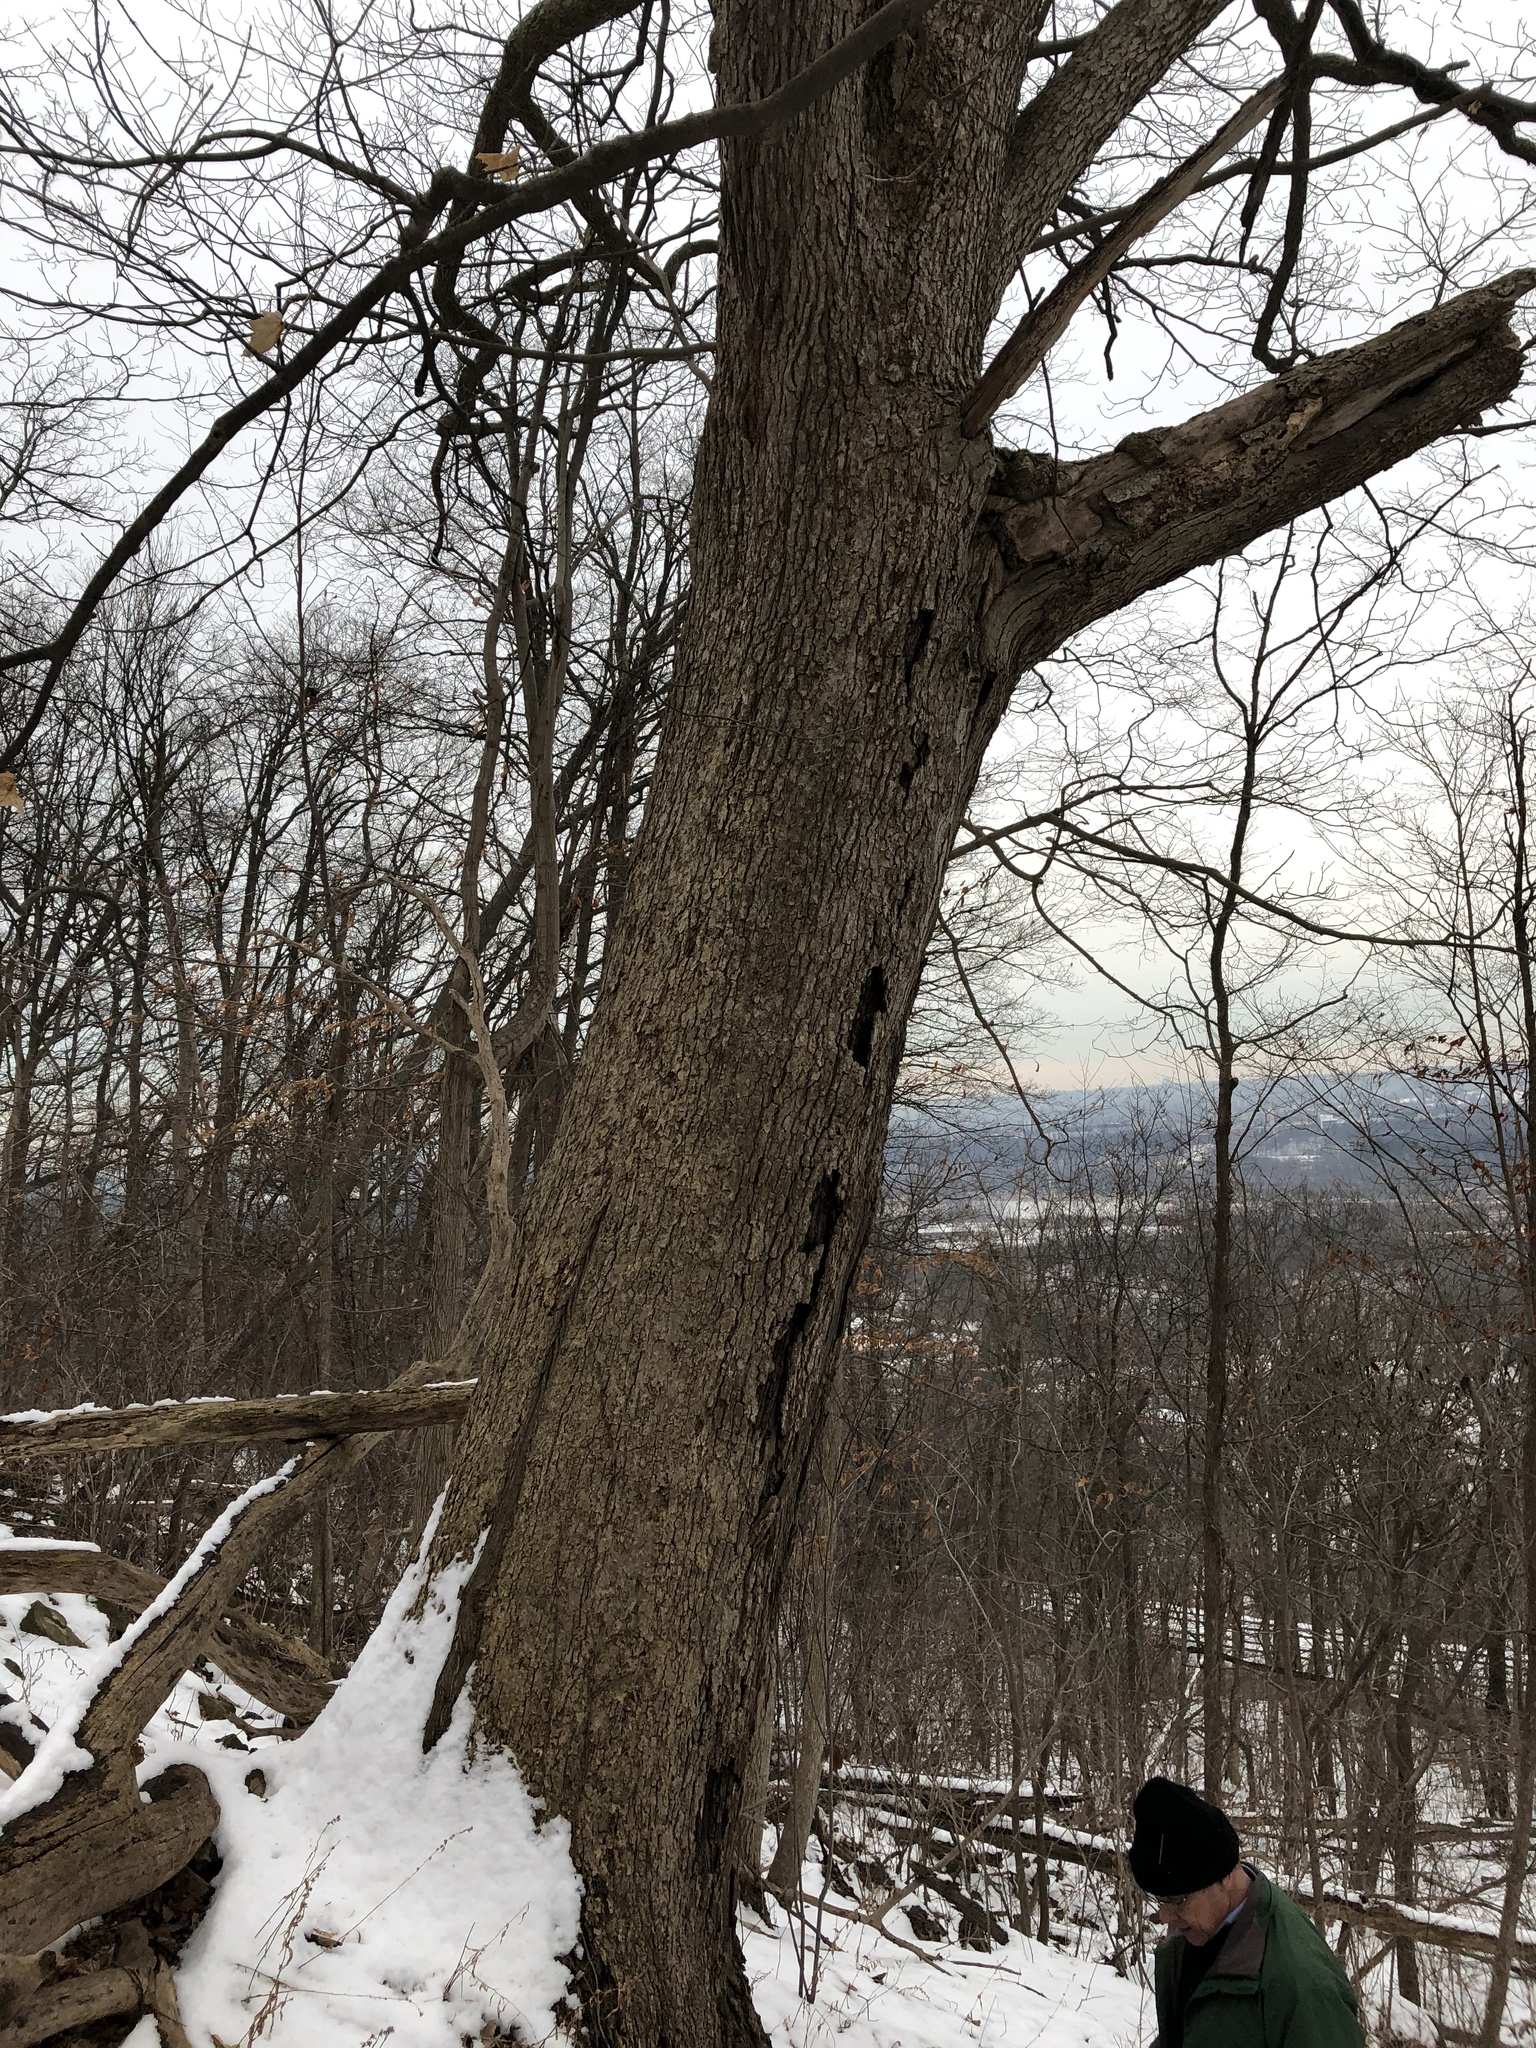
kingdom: Plantae
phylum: Tracheophyta
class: Magnoliopsida
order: Fagales
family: Fagaceae
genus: Quercus
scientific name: Quercus muehlenbergii
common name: Chinkapin oak
